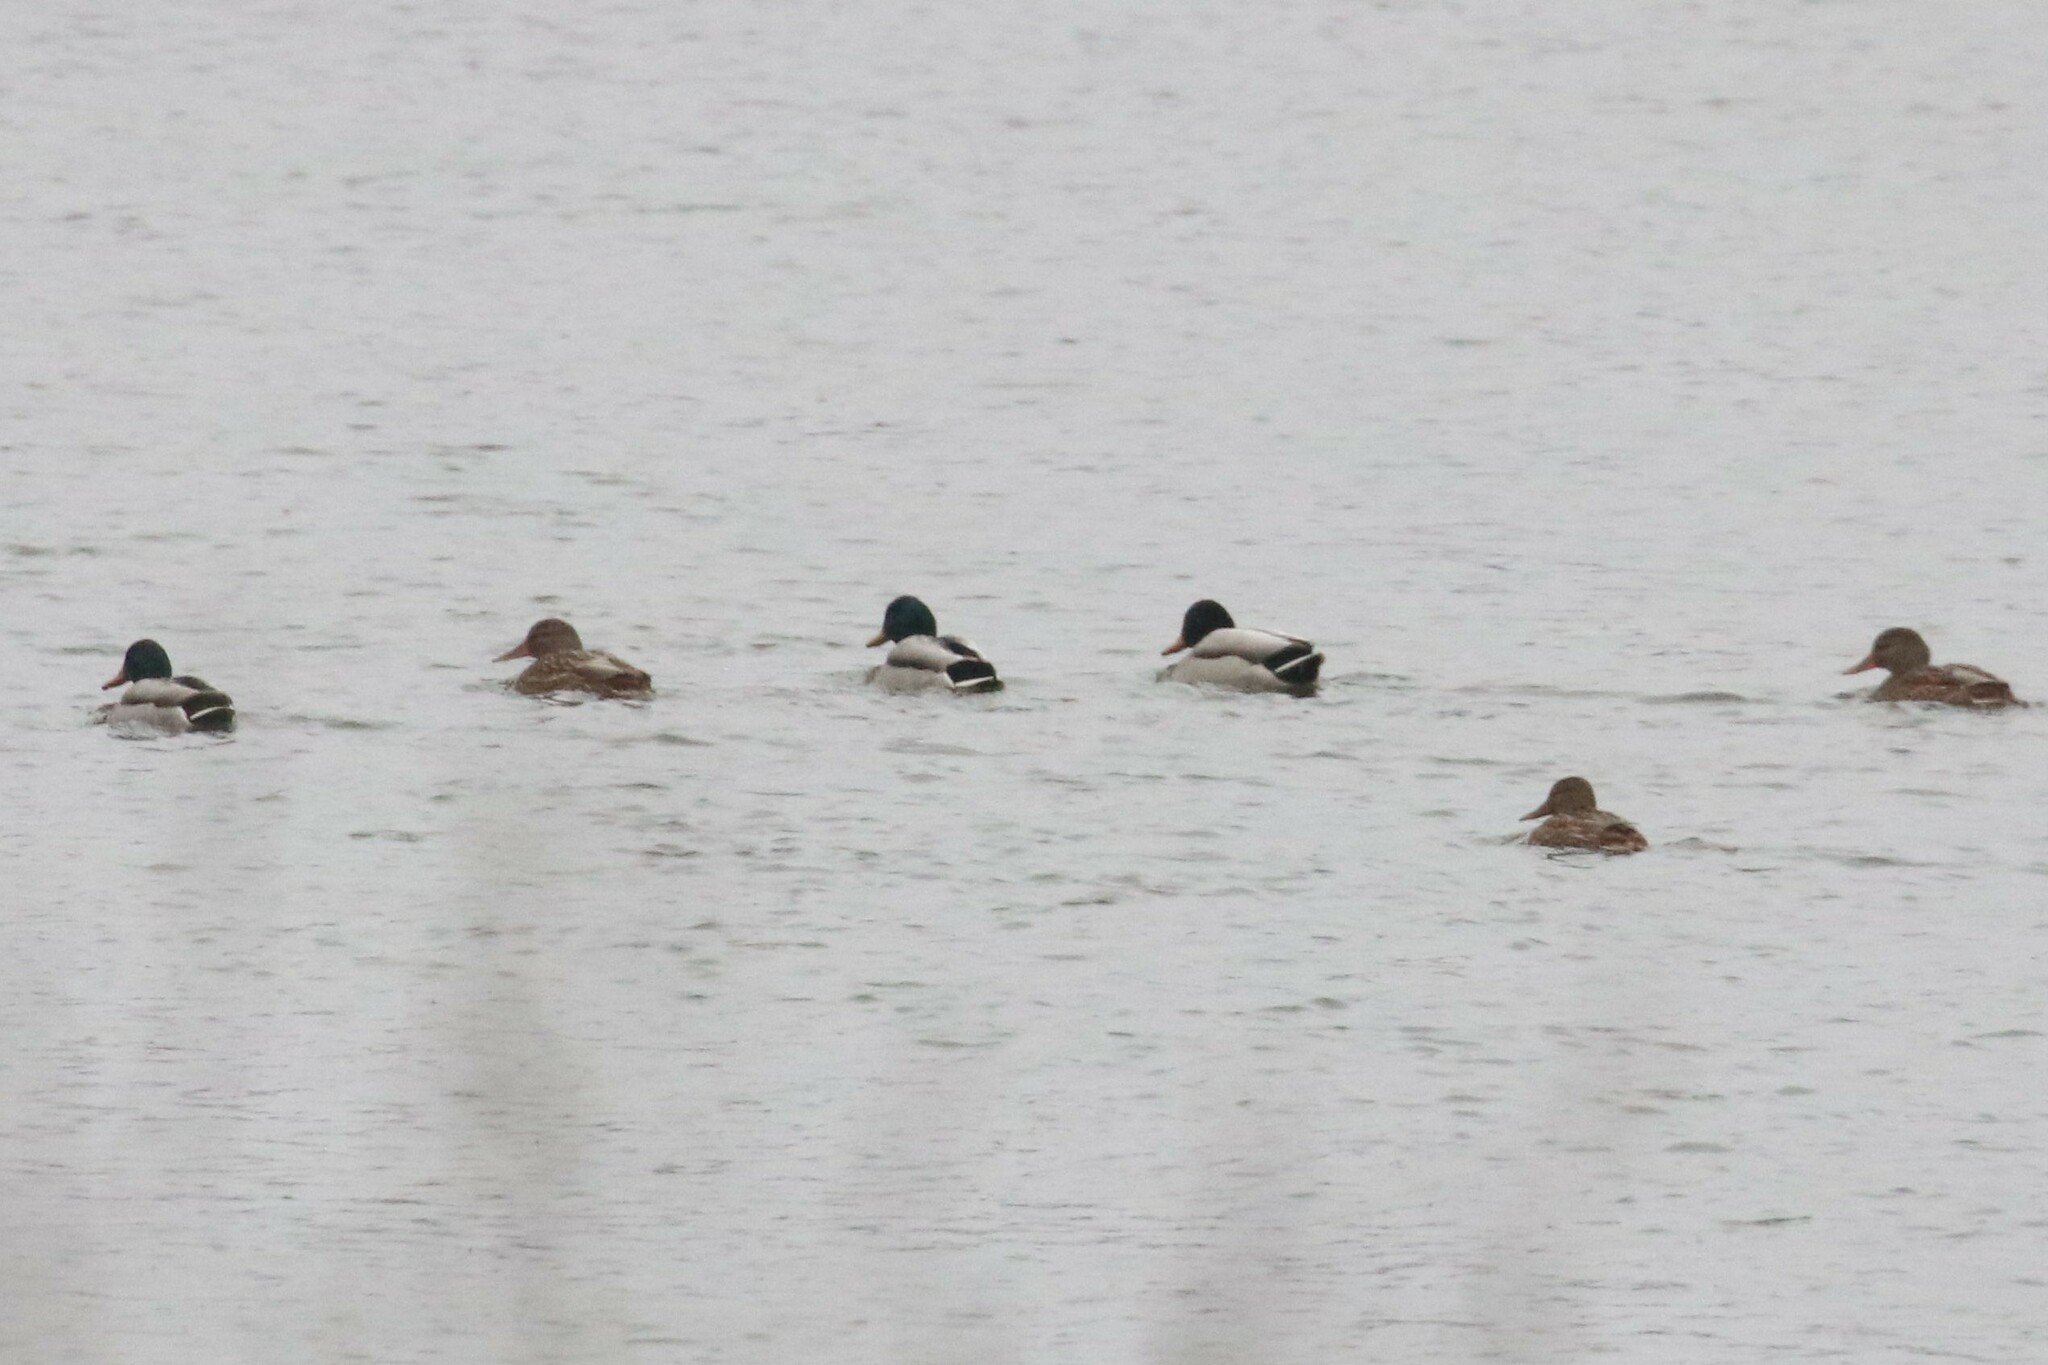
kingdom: Animalia
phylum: Chordata
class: Aves
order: Anseriformes
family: Anatidae
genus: Anas
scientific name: Anas platyrhynchos
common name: Mallard
